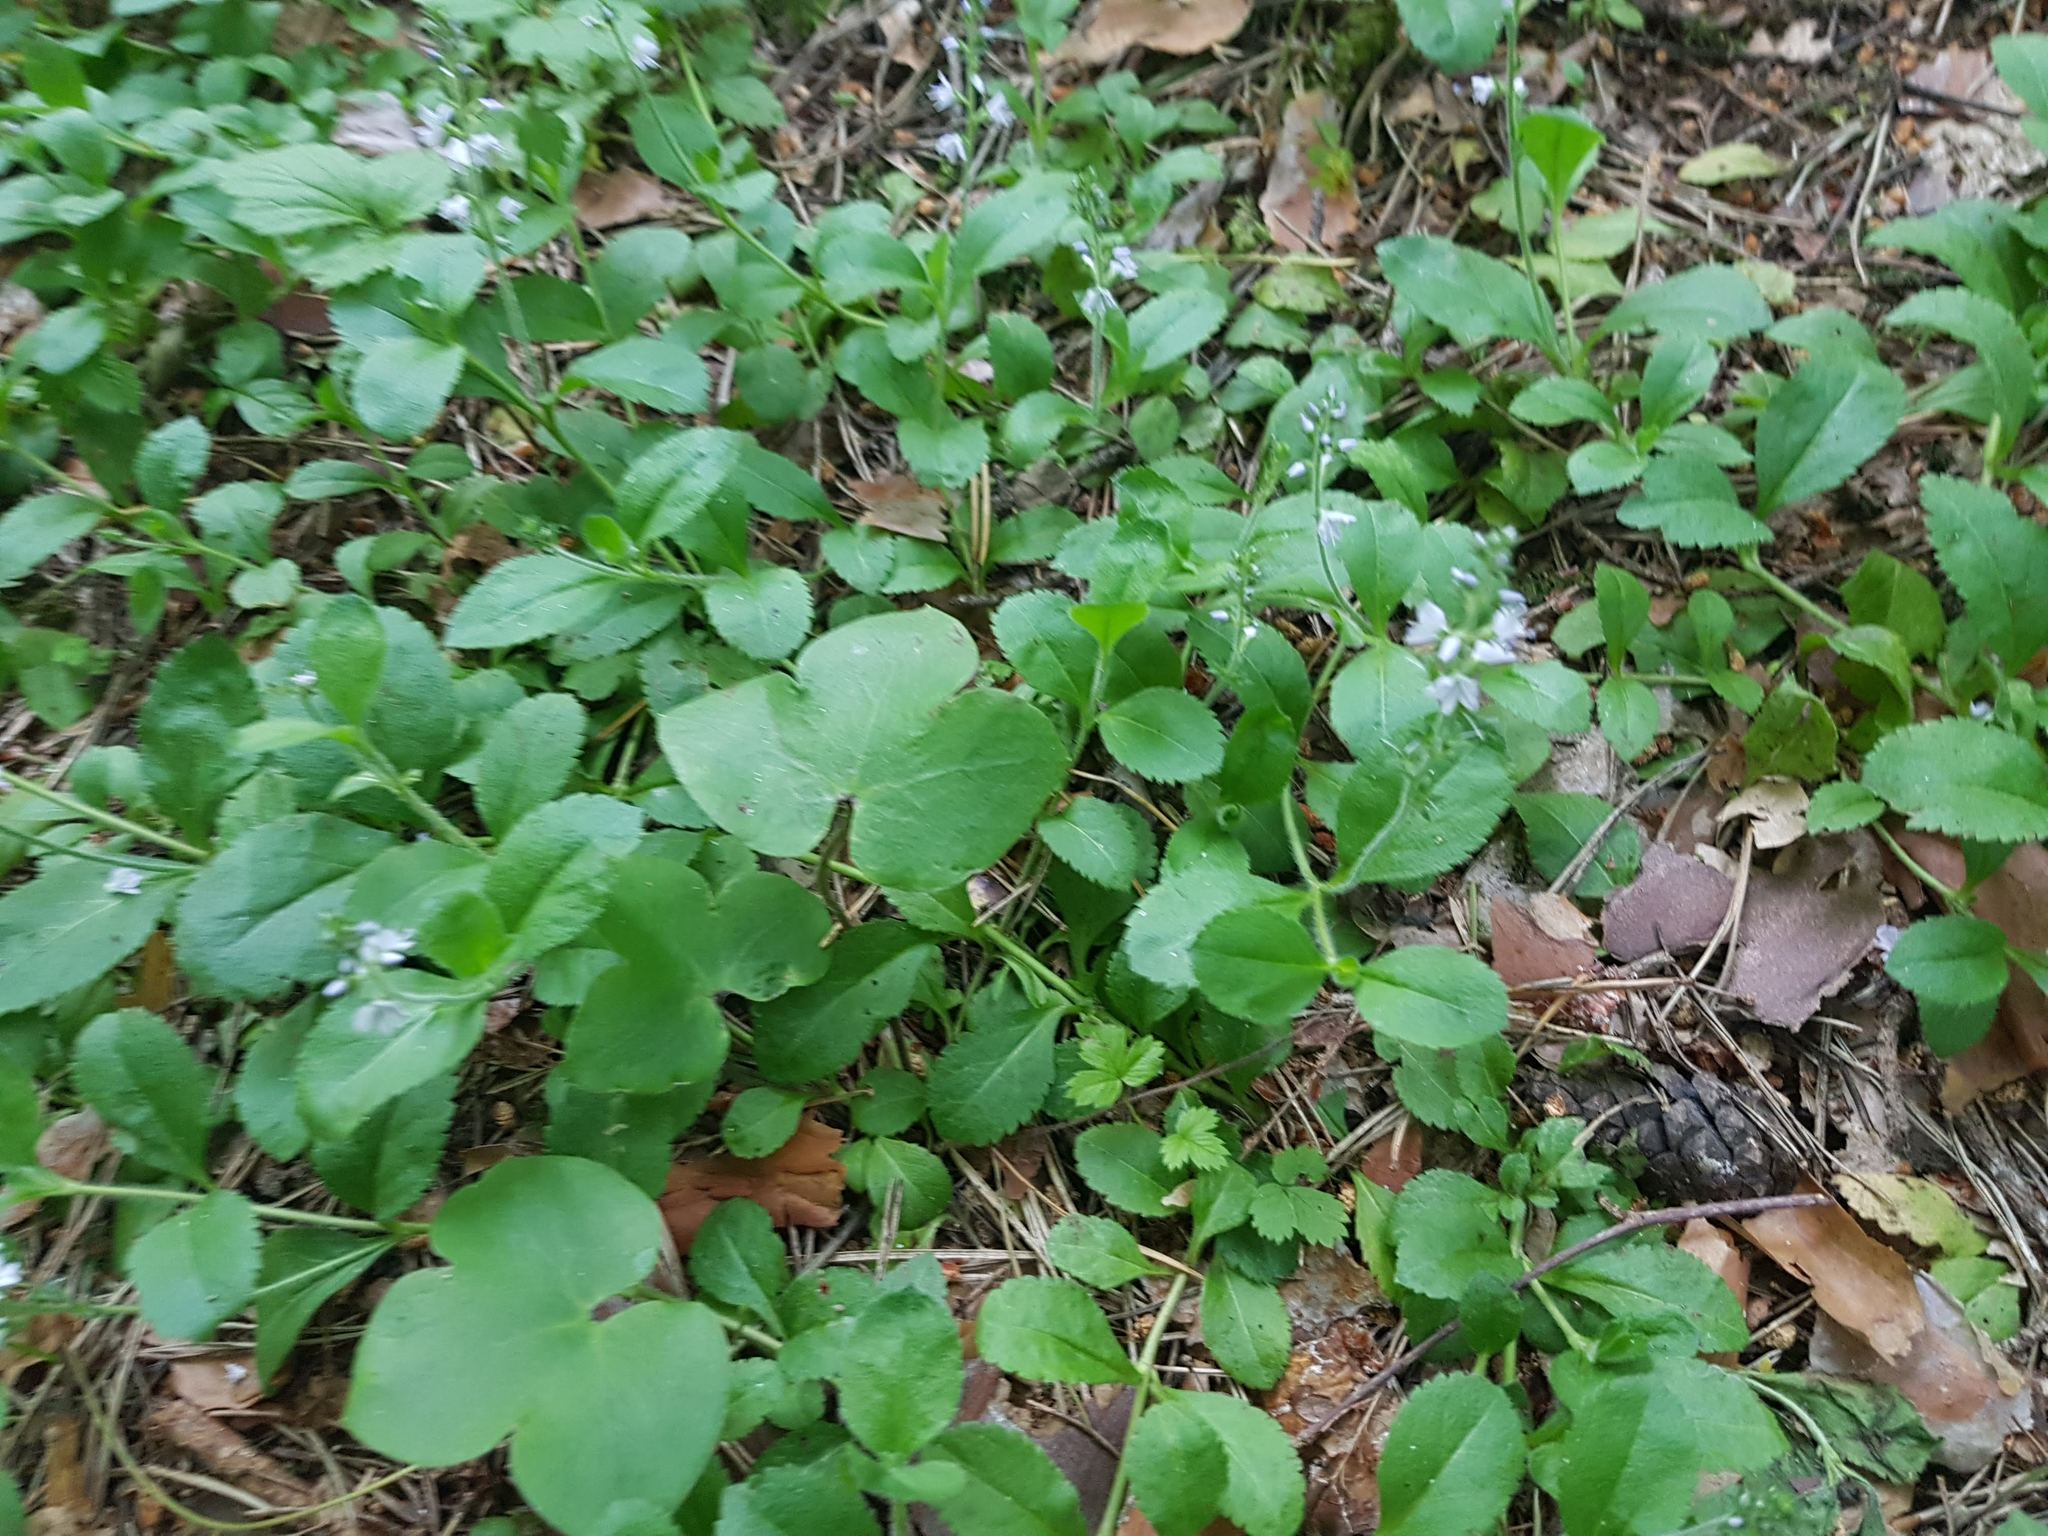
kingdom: Plantae
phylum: Tracheophyta
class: Magnoliopsida
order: Lamiales
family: Plantaginaceae
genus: Veronica
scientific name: Veronica officinalis
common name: Common speedwell
